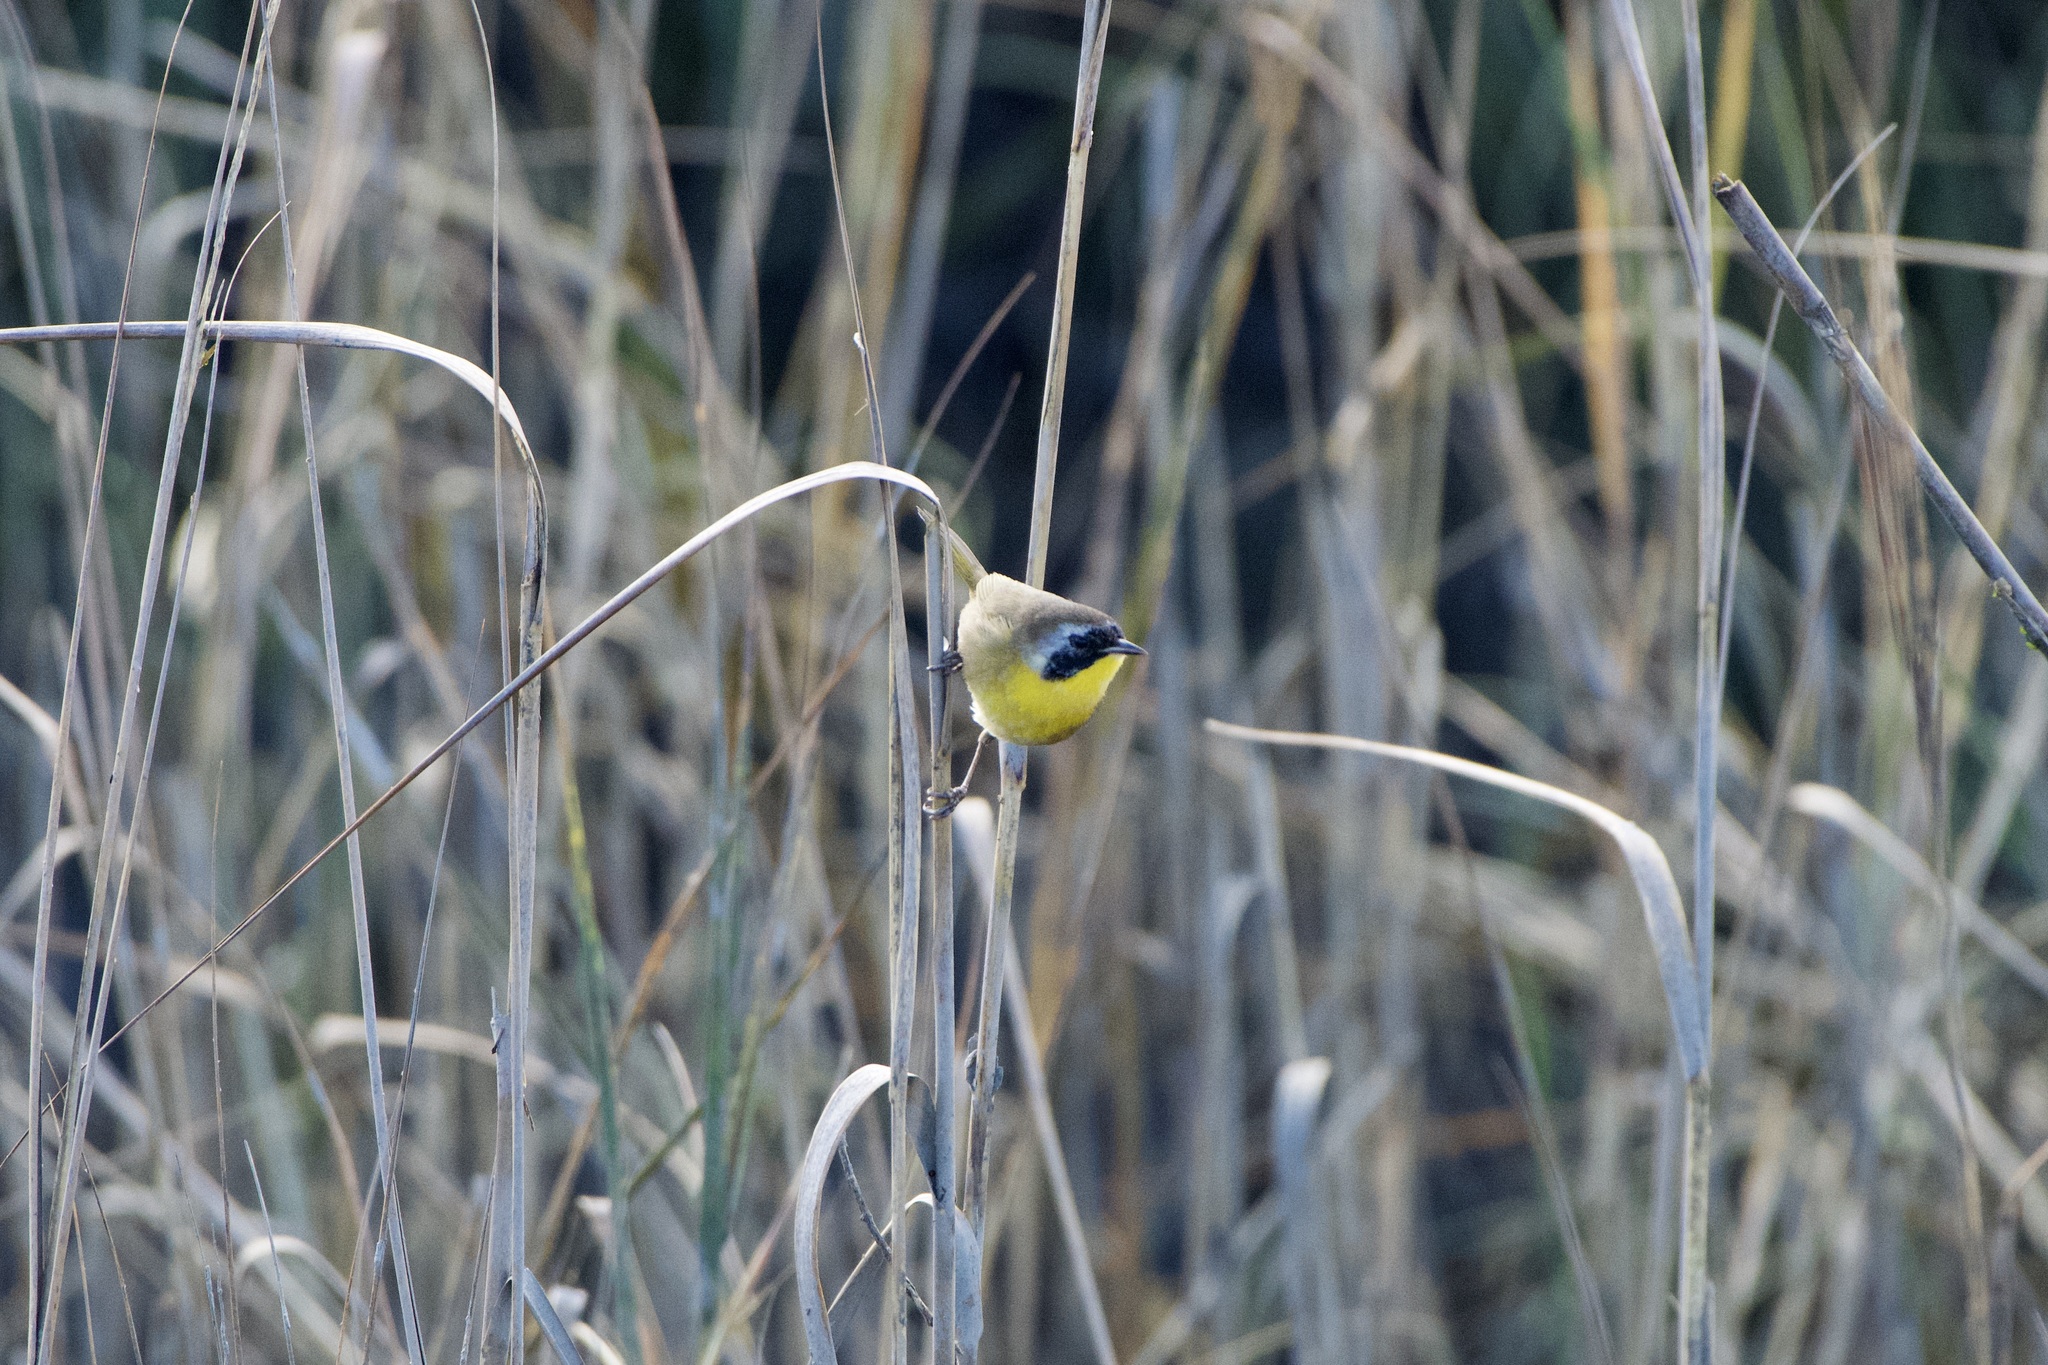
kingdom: Animalia
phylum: Chordata
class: Aves
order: Passeriformes
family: Parulidae
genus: Geothlypis
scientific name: Geothlypis trichas
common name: Common yellowthroat
